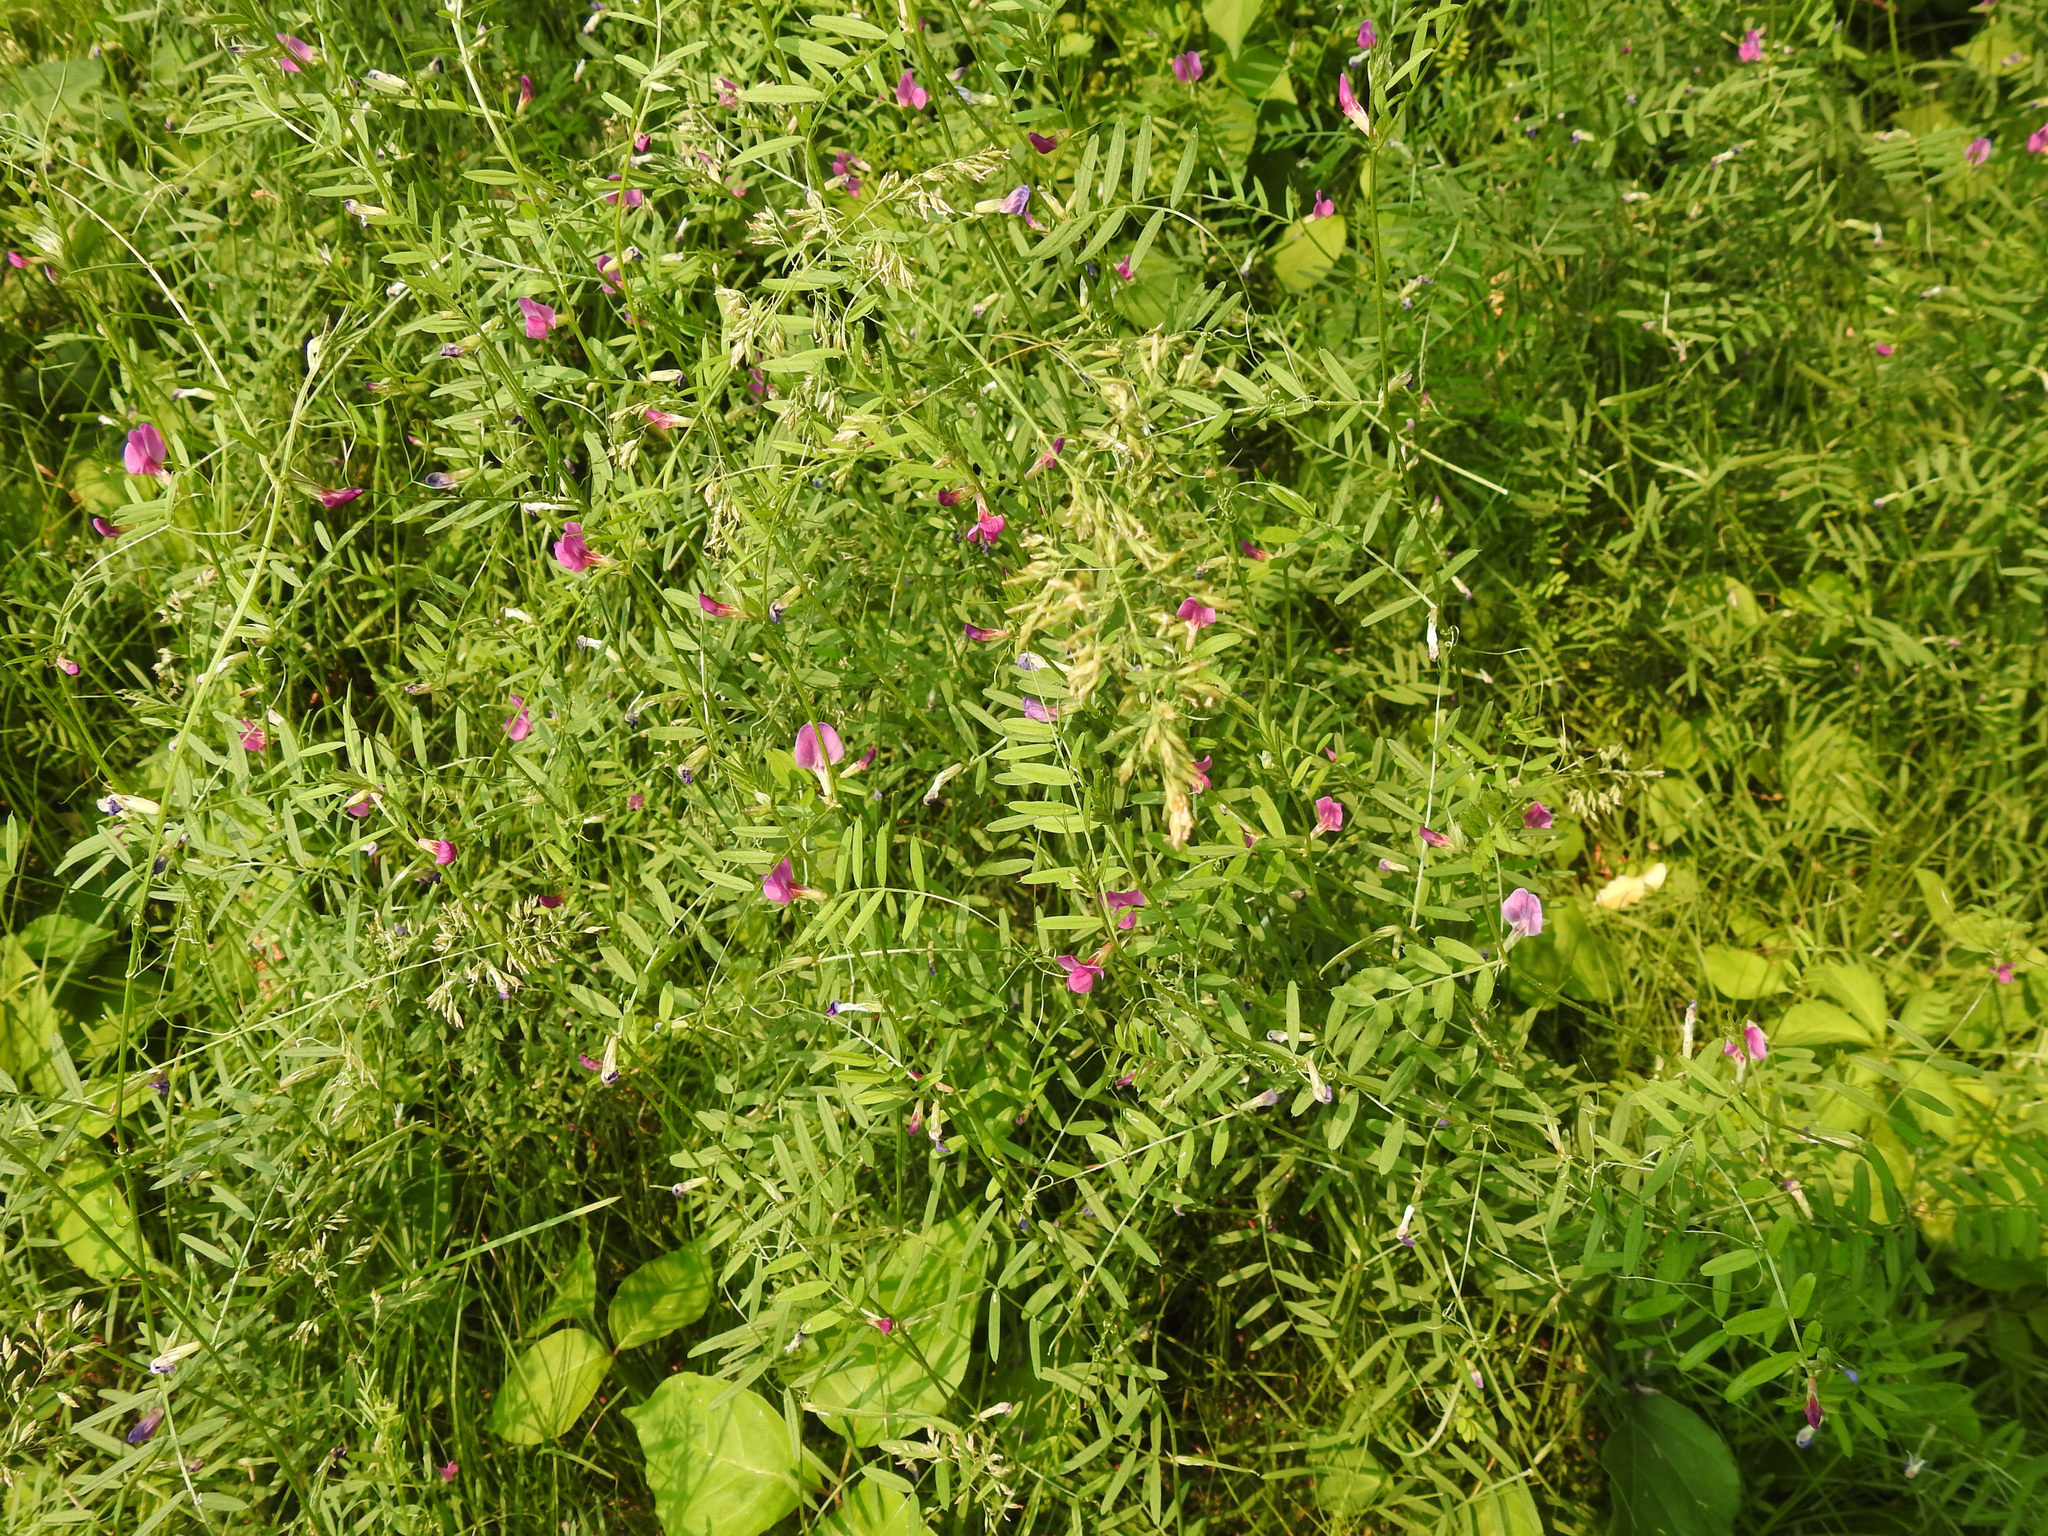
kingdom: Plantae
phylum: Tracheophyta
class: Magnoliopsida
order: Fabales
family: Fabaceae
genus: Vicia
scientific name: Vicia sativa
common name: Garden vetch
